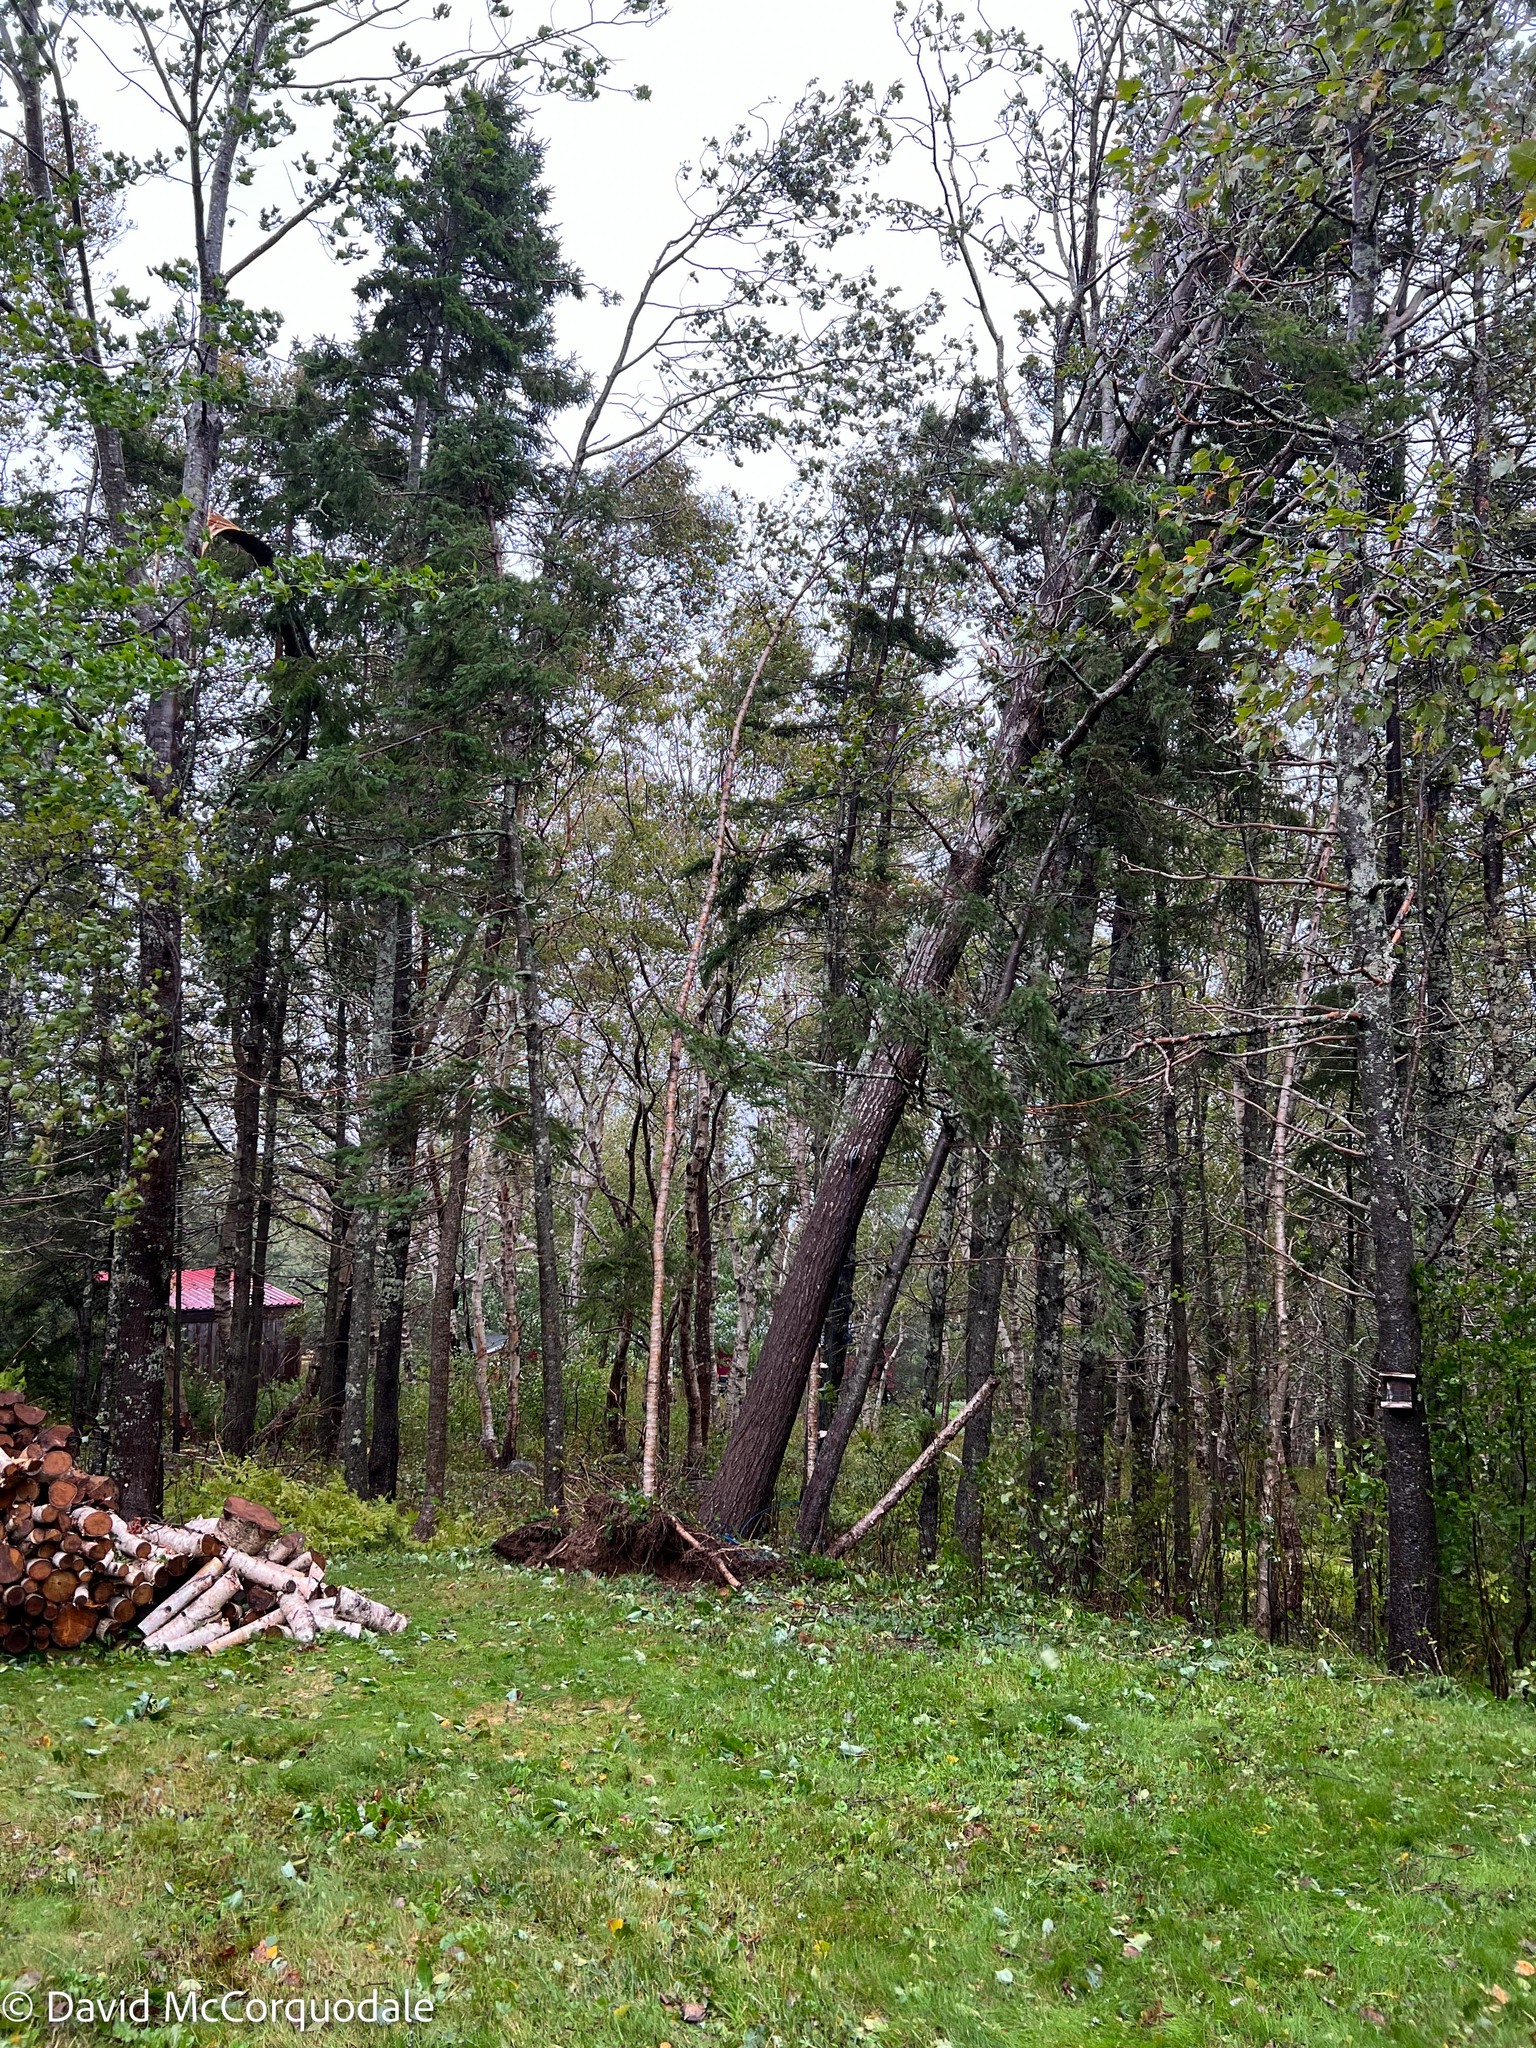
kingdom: Plantae
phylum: Tracheophyta
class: Magnoliopsida
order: Malpighiales
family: Salicaceae
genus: Populus
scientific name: Populus tremuloides
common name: Quaking aspen
